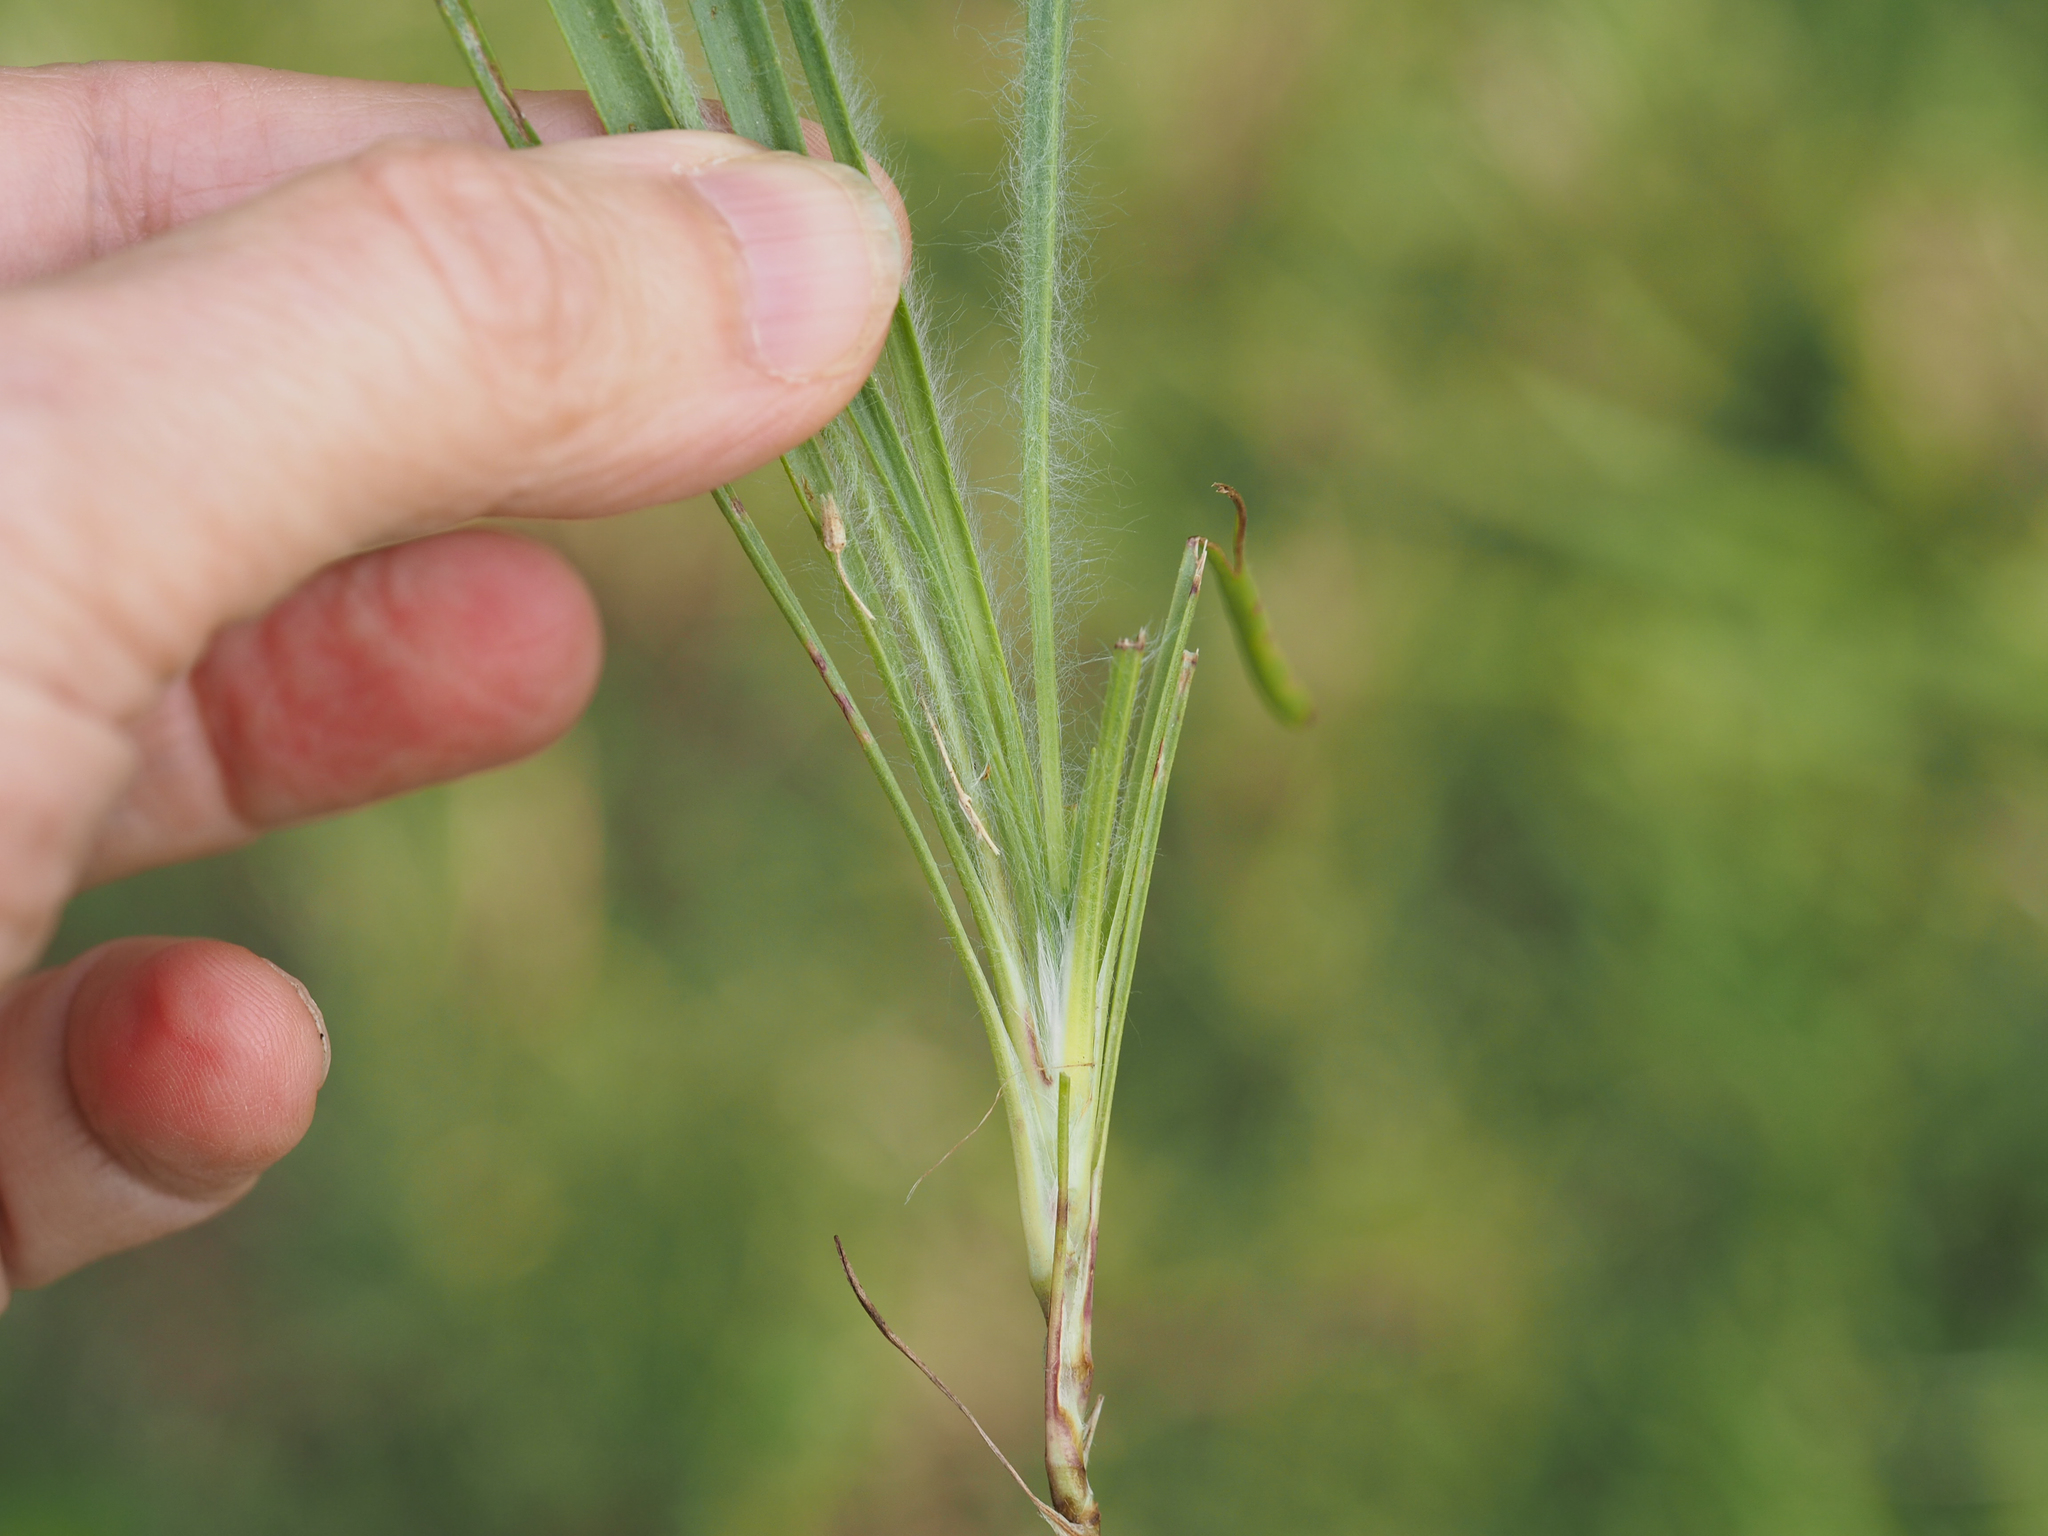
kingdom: Plantae
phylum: Tracheophyta
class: Magnoliopsida
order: Lamiales
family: Plantaginaceae
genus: Plantago
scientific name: Plantago aristata
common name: Bracted plantain
